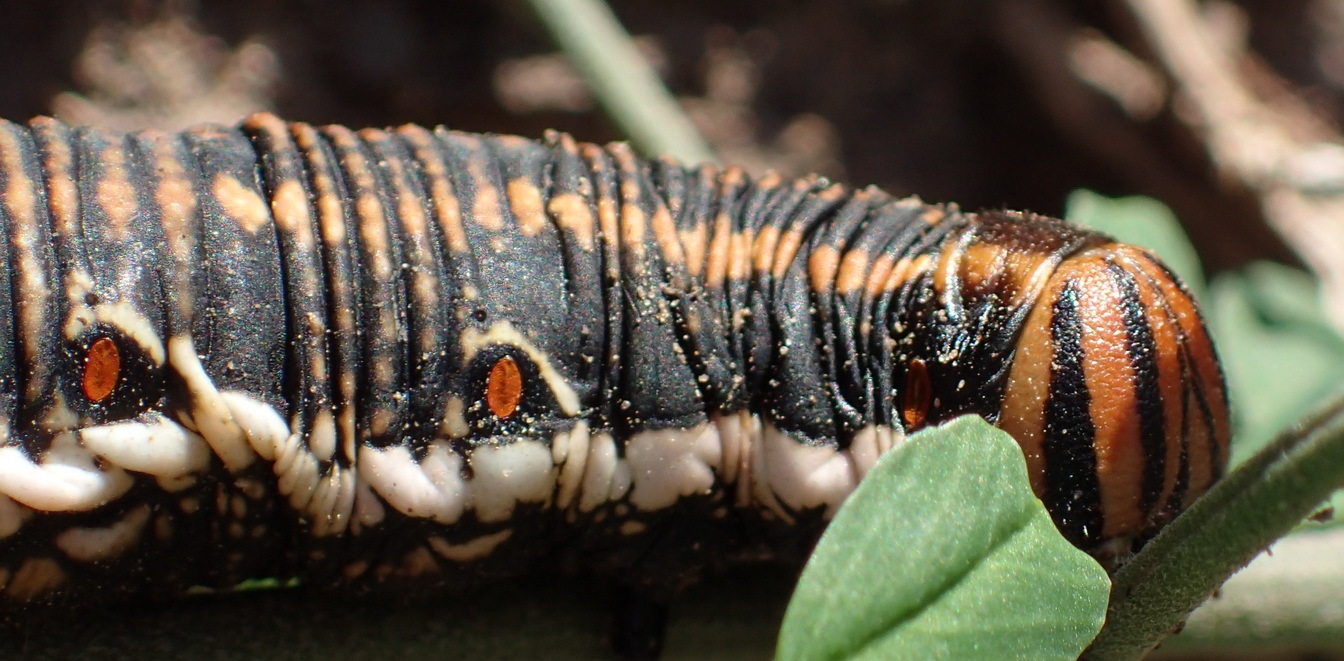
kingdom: Animalia
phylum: Arthropoda
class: Insecta
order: Lepidoptera
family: Sphingidae
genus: Agrius
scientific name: Agrius convolvuli
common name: Convolvulus hawkmoth
